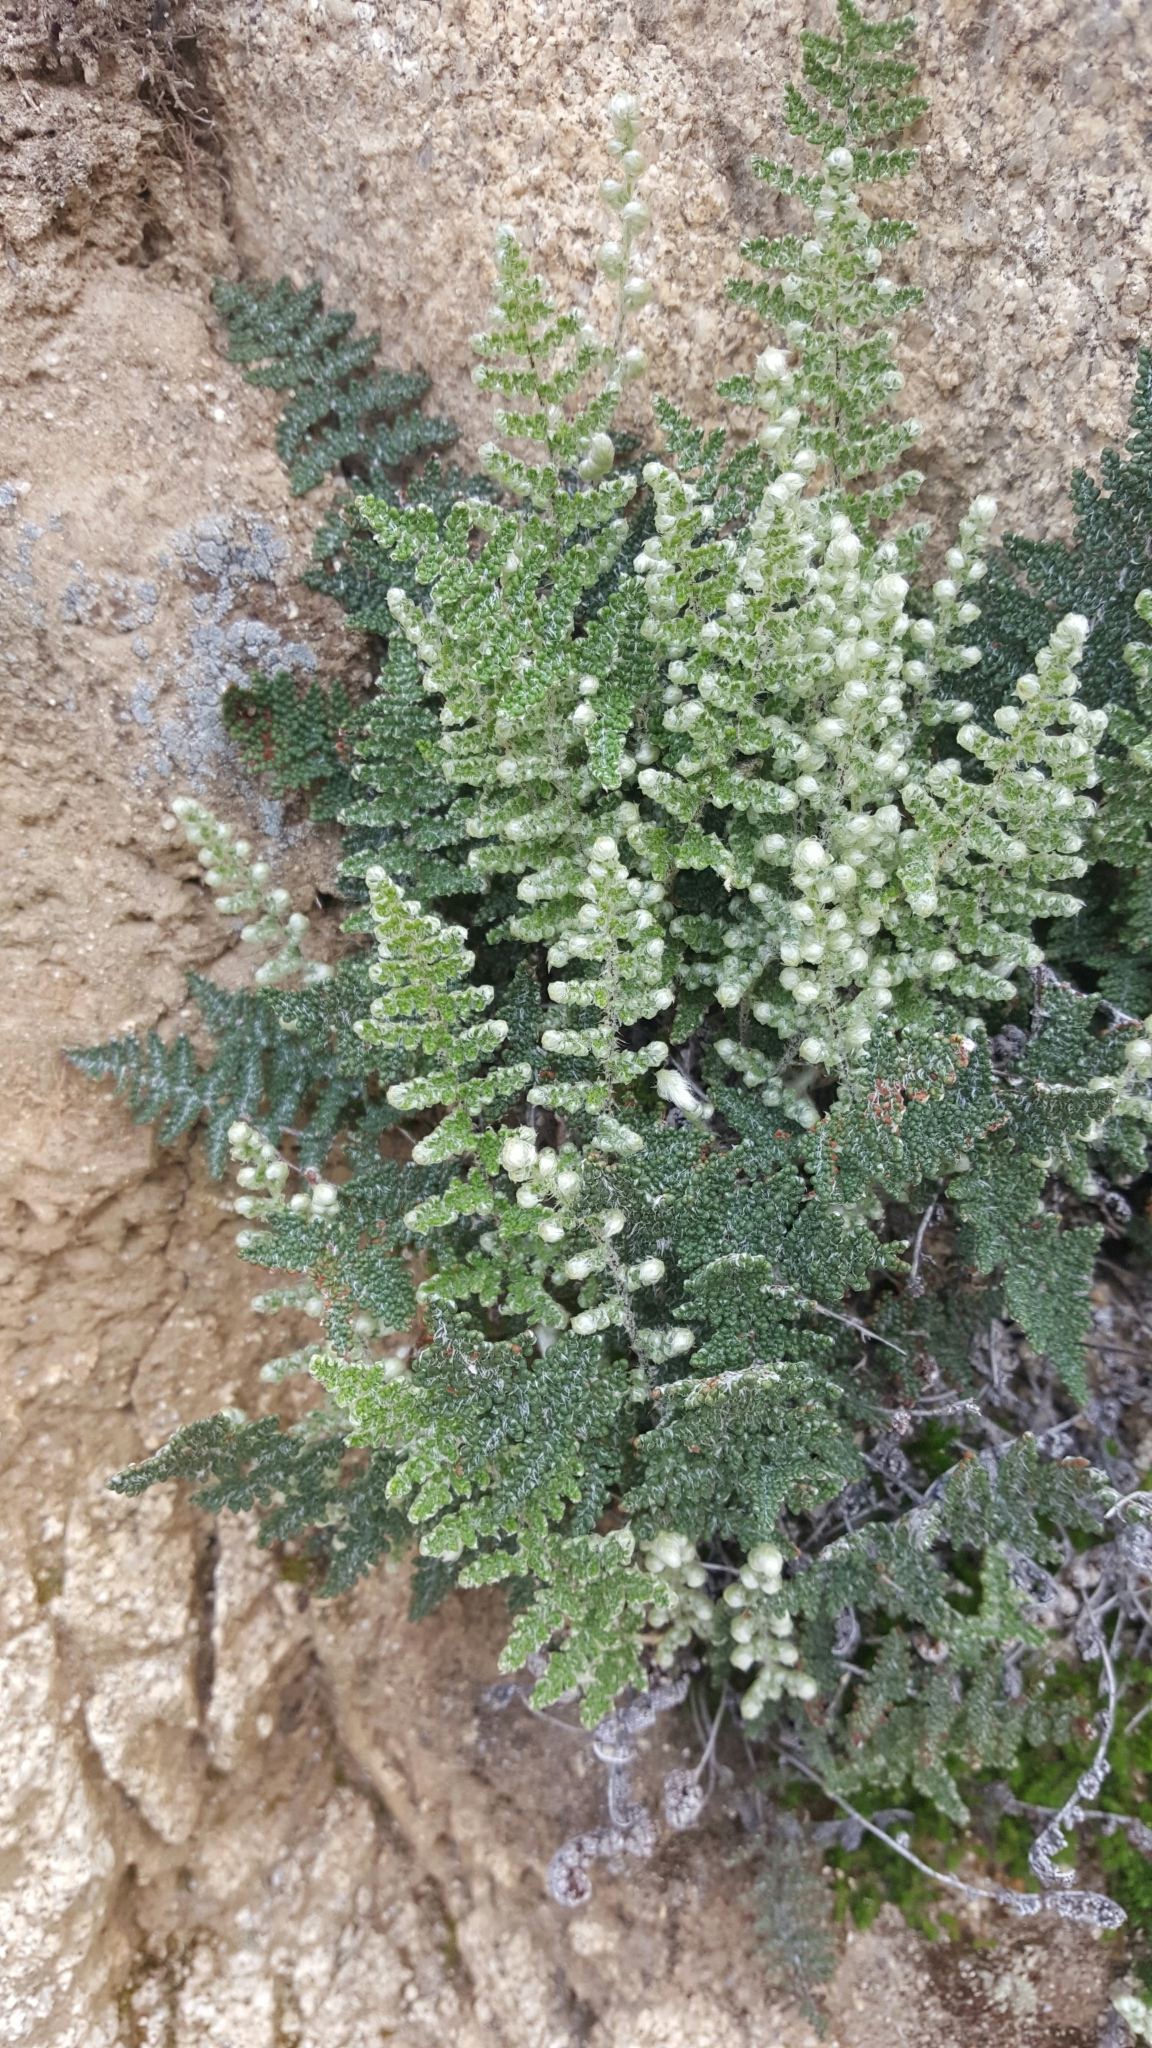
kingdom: Plantae
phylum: Tracheophyta
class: Polypodiopsida
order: Polypodiales
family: Pteridaceae
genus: Myriopteris
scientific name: Myriopteris covillei
